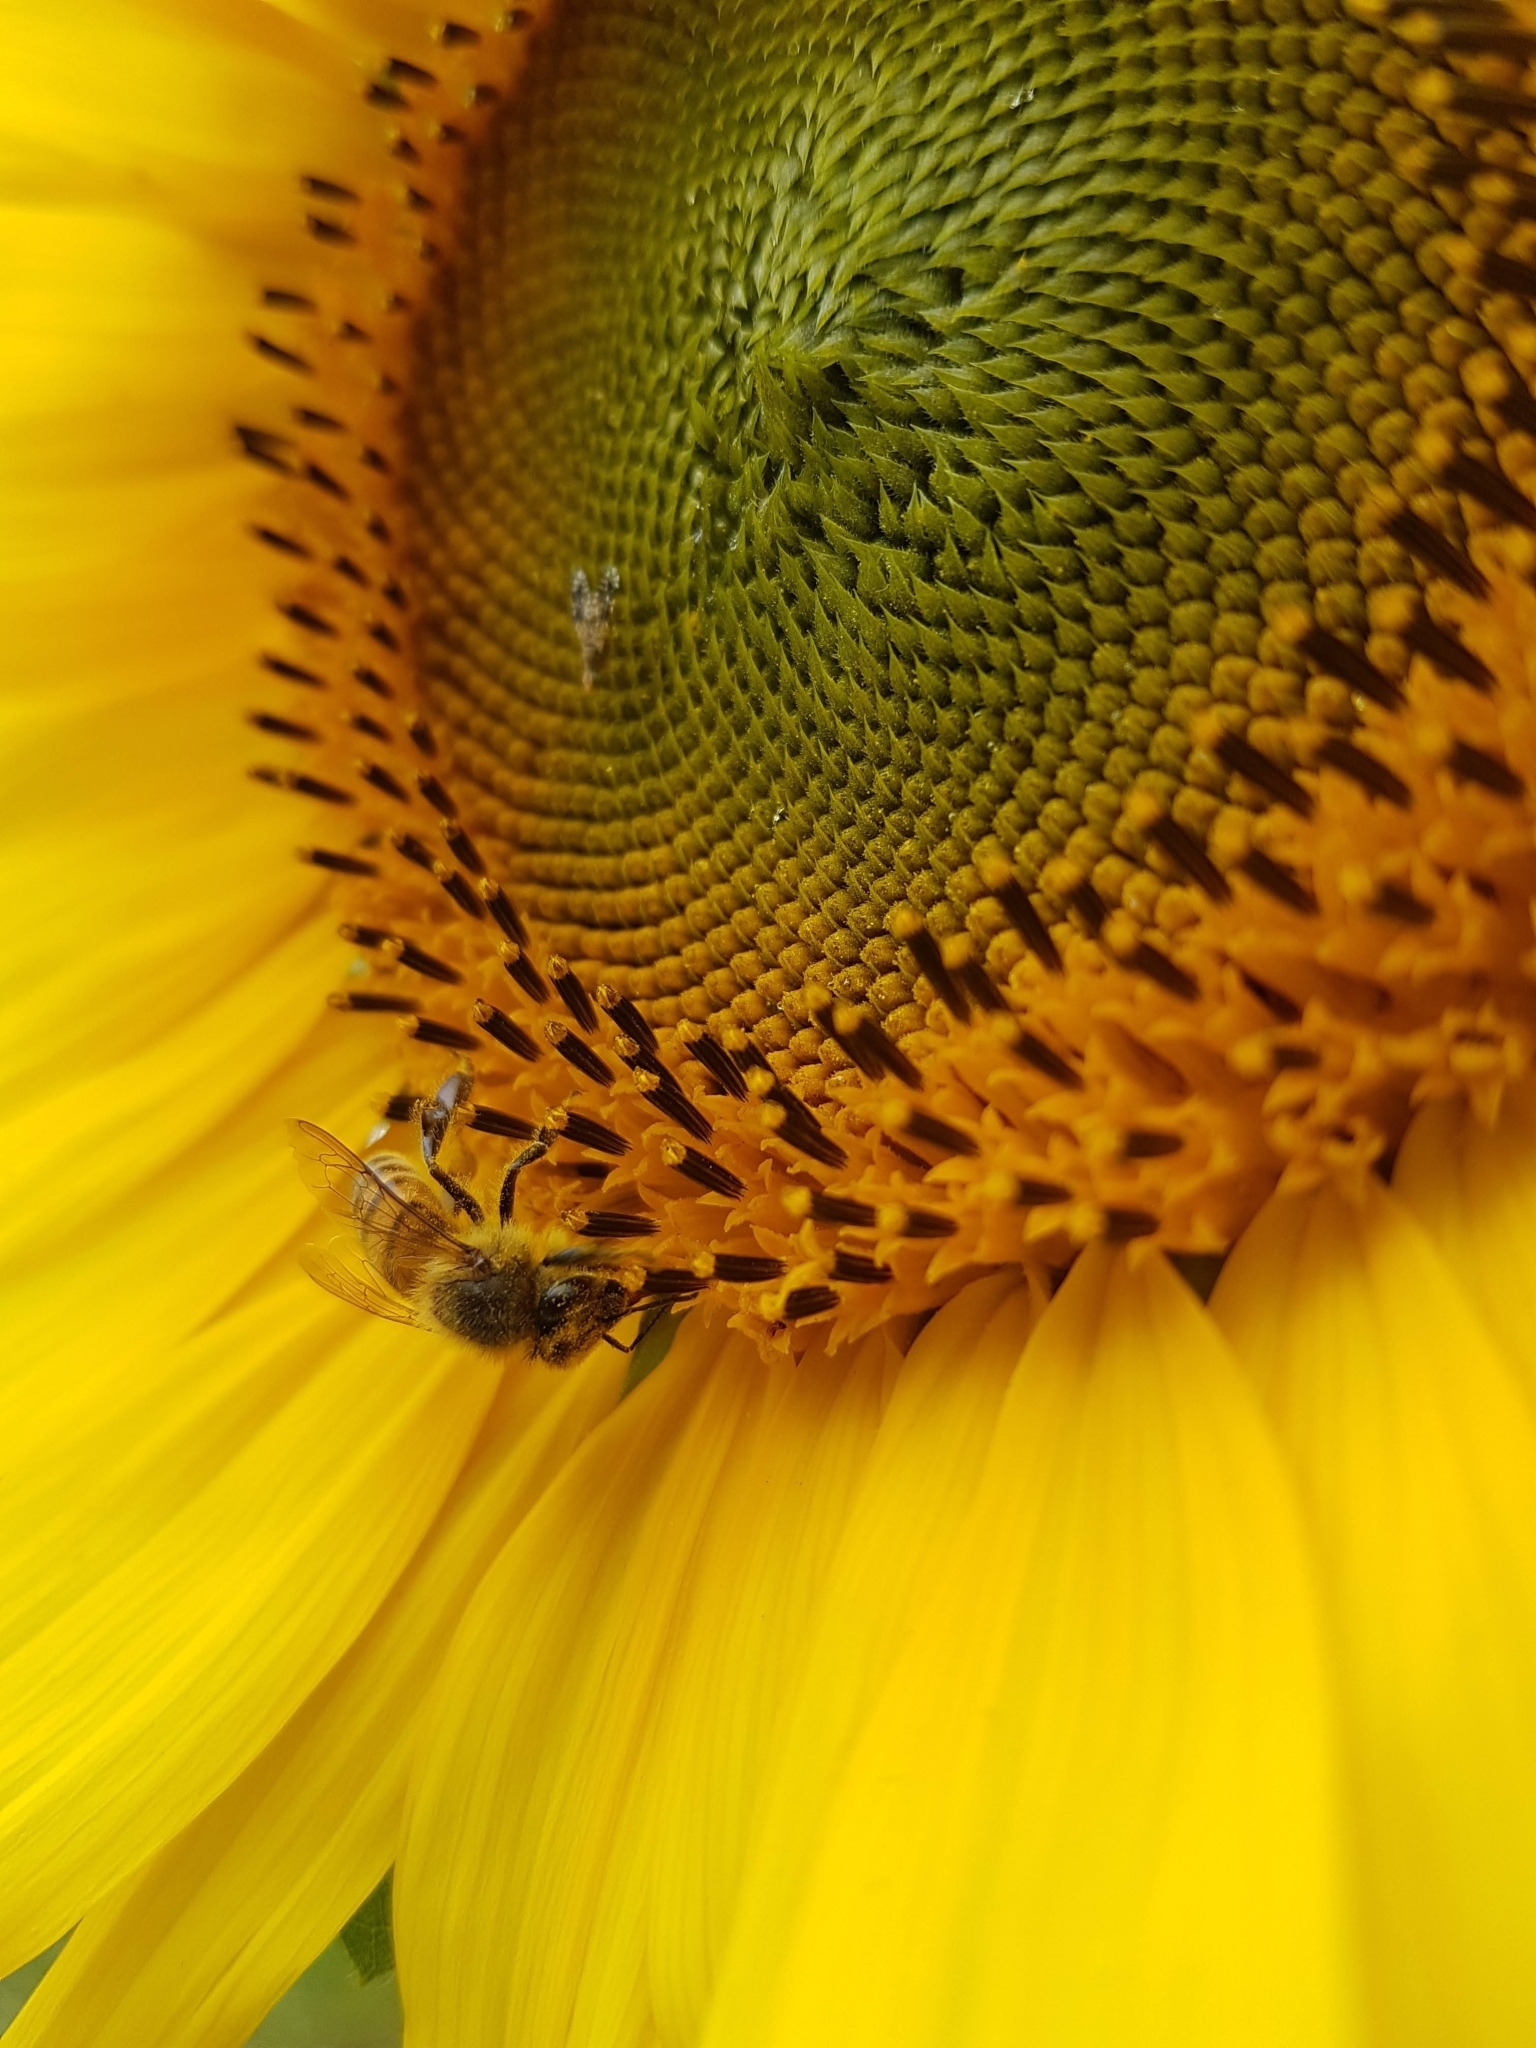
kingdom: Animalia
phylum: Arthropoda
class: Insecta
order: Hymenoptera
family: Apidae
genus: Apis
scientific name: Apis mellifera
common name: Honey bee
